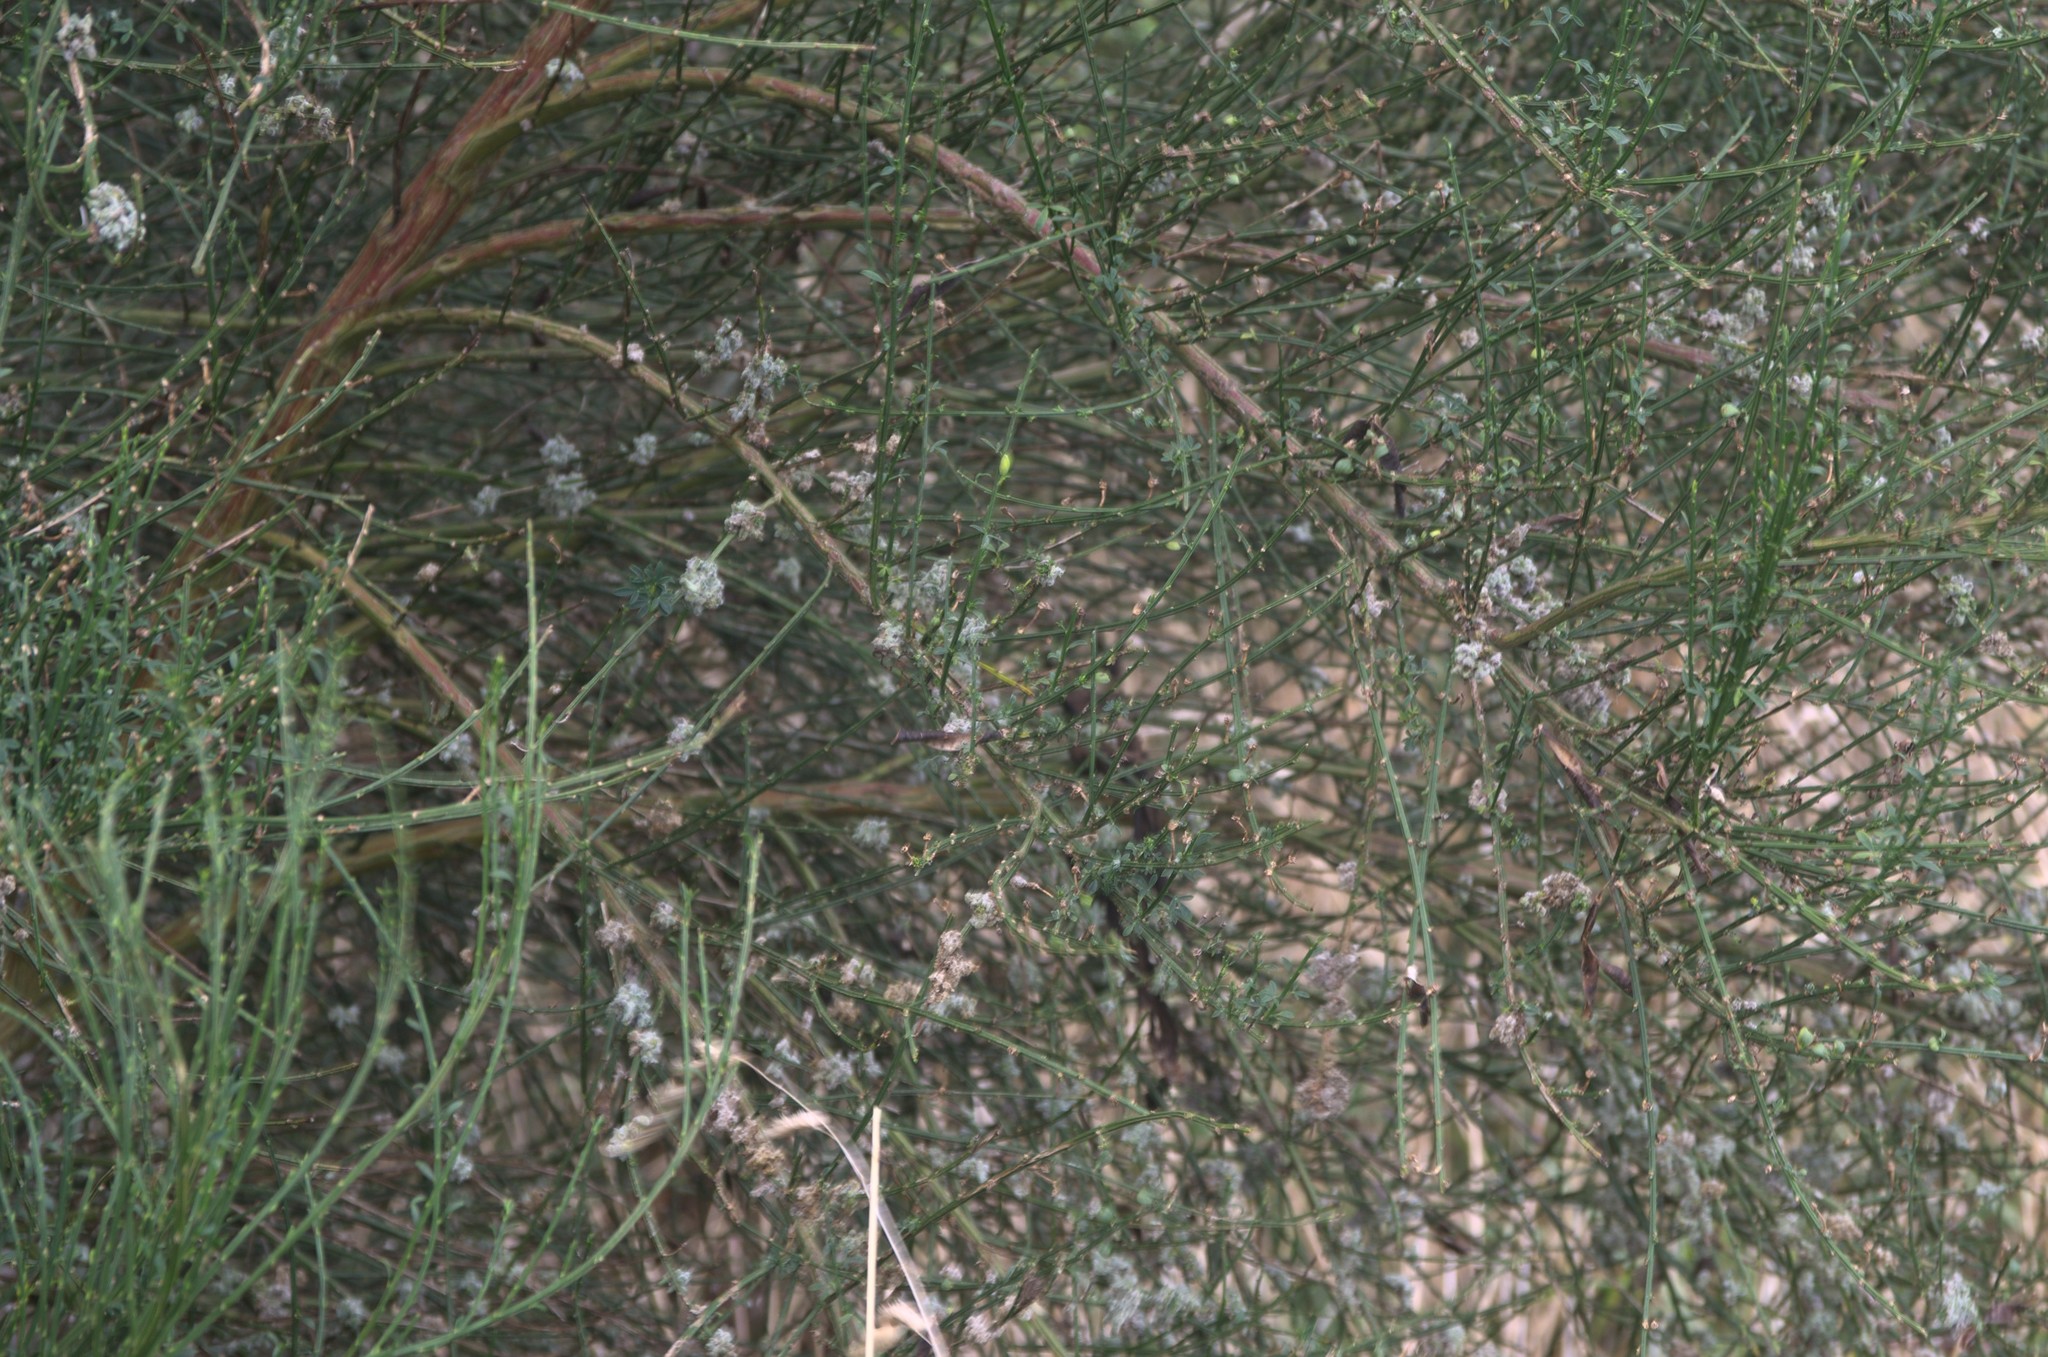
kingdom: Animalia
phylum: Arthropoda
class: Arachnida
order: Trombidiformes
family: Eriophyidae
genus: Aceria
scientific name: Aceria genistae
